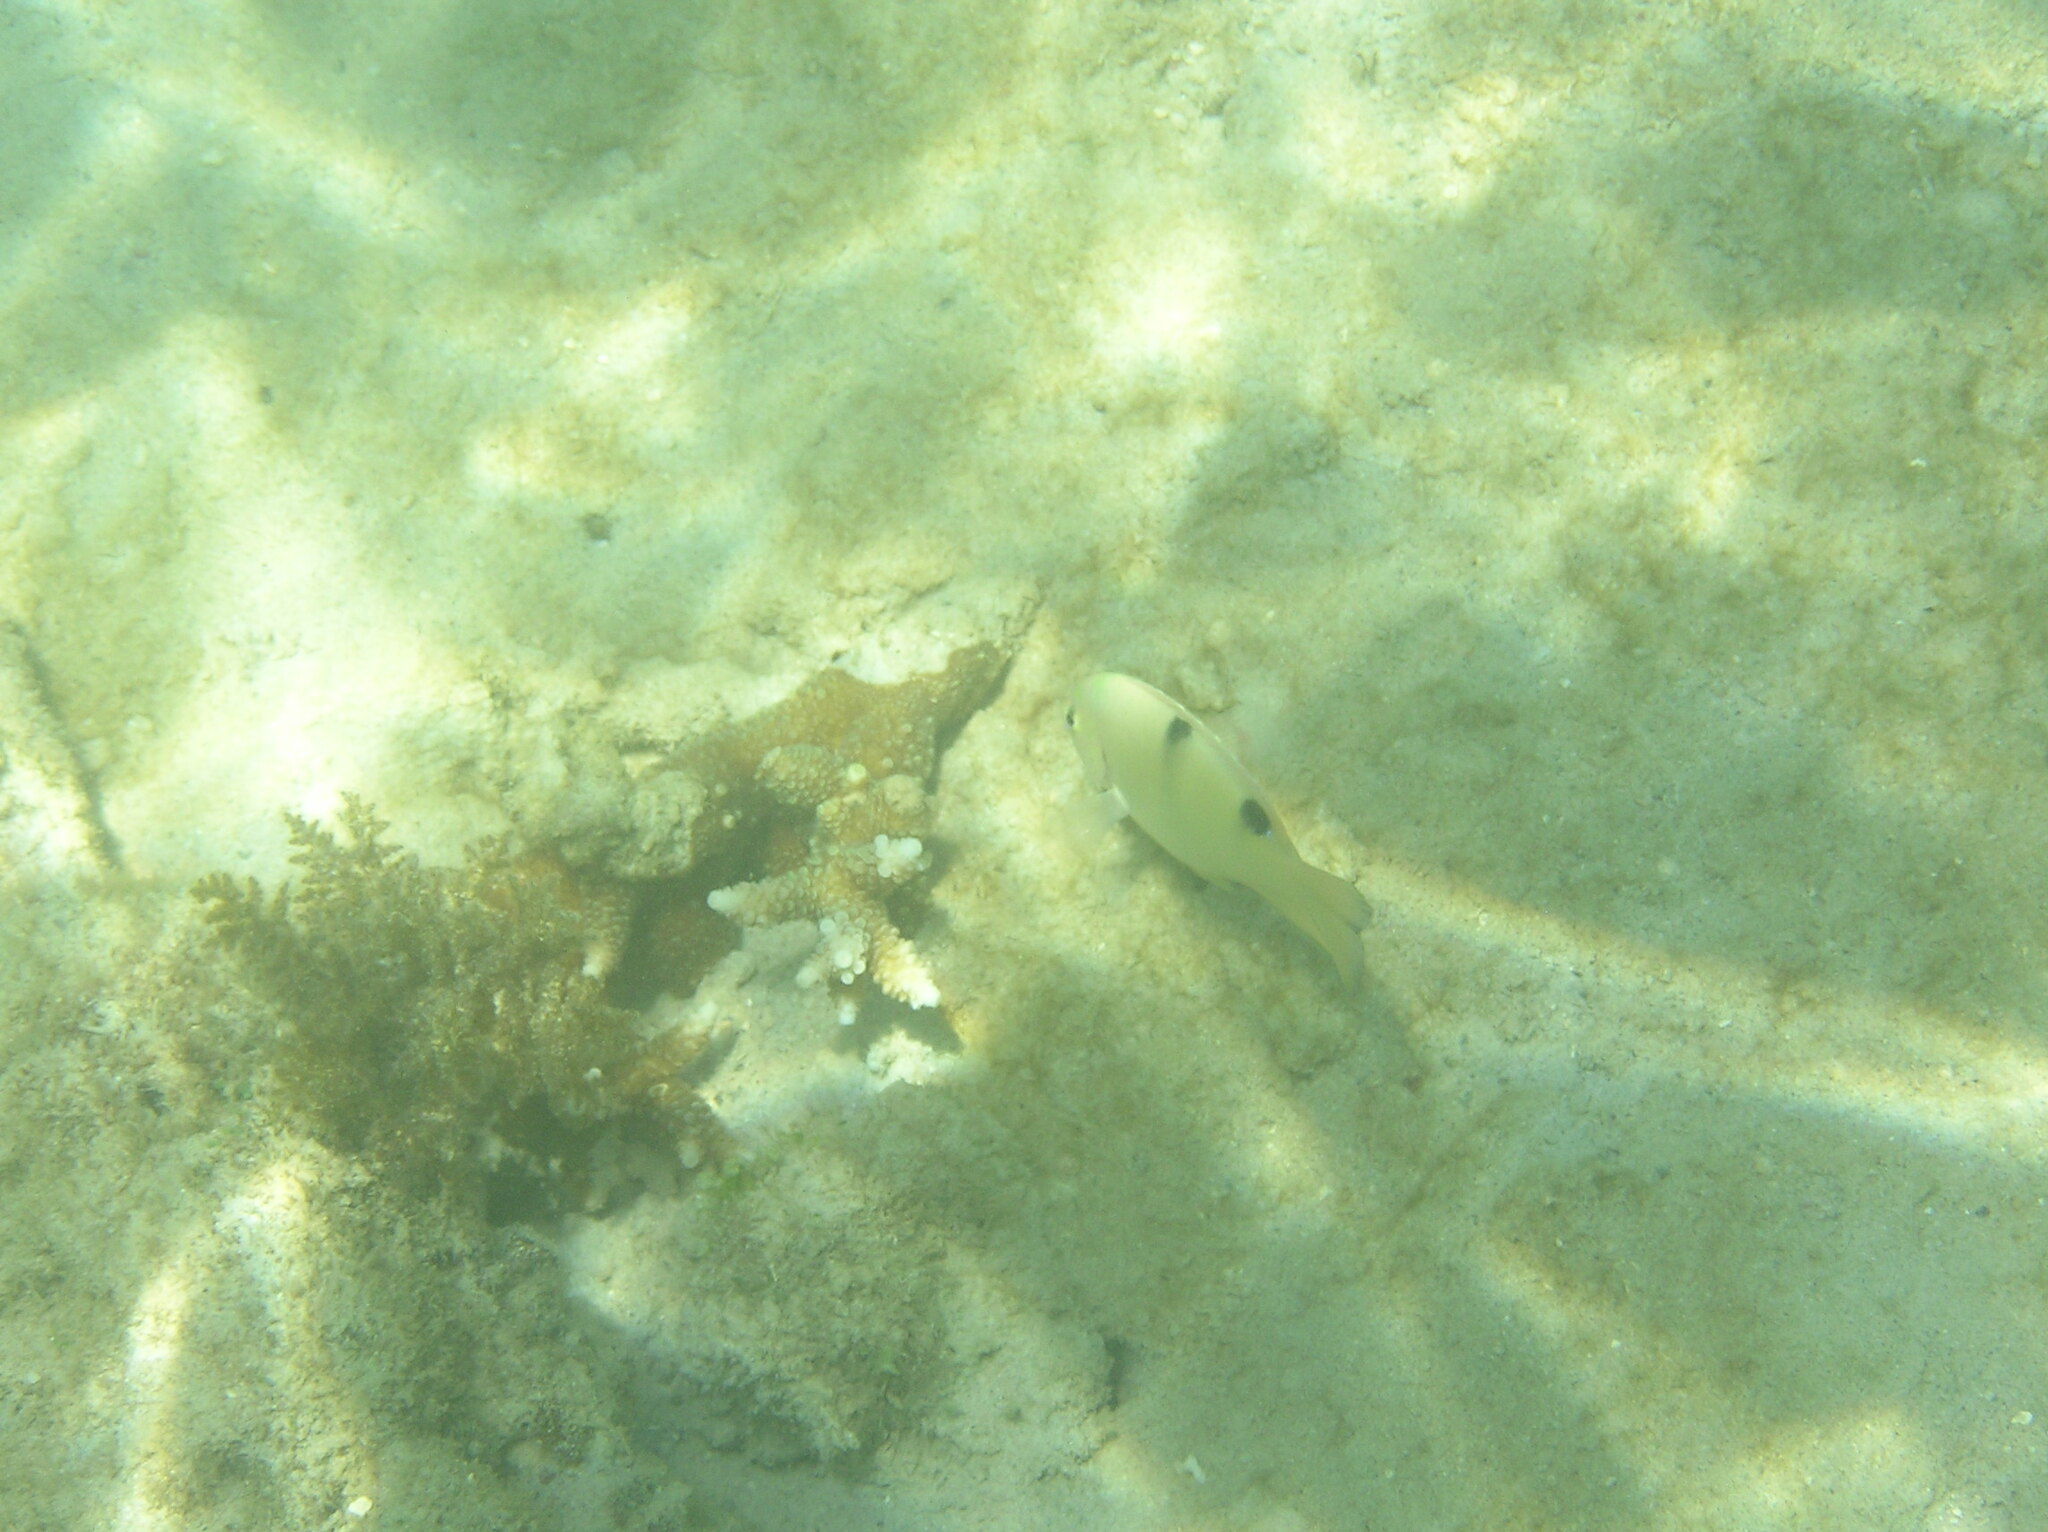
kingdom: Animalia
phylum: Chordata
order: Perciformes
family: Pomacentridae
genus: Dischistodus
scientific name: Dischistodus perspicillatus
